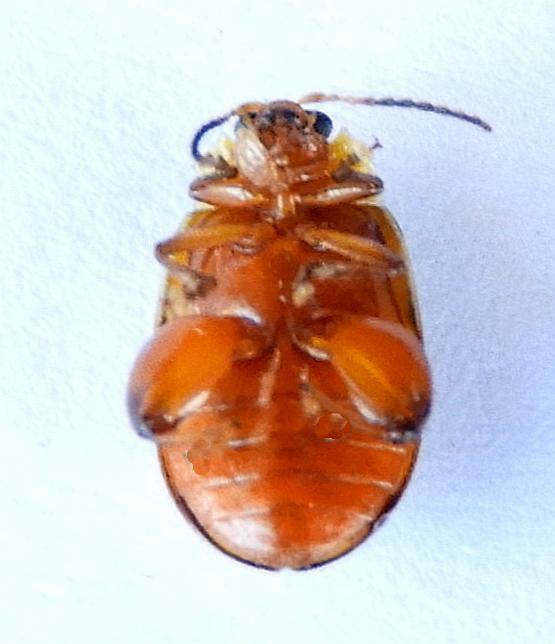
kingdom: Animalia
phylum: Arthropoda
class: Insecta
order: Coleoptera
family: Chrysomelidae
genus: Alagoasa
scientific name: Alagoasa
